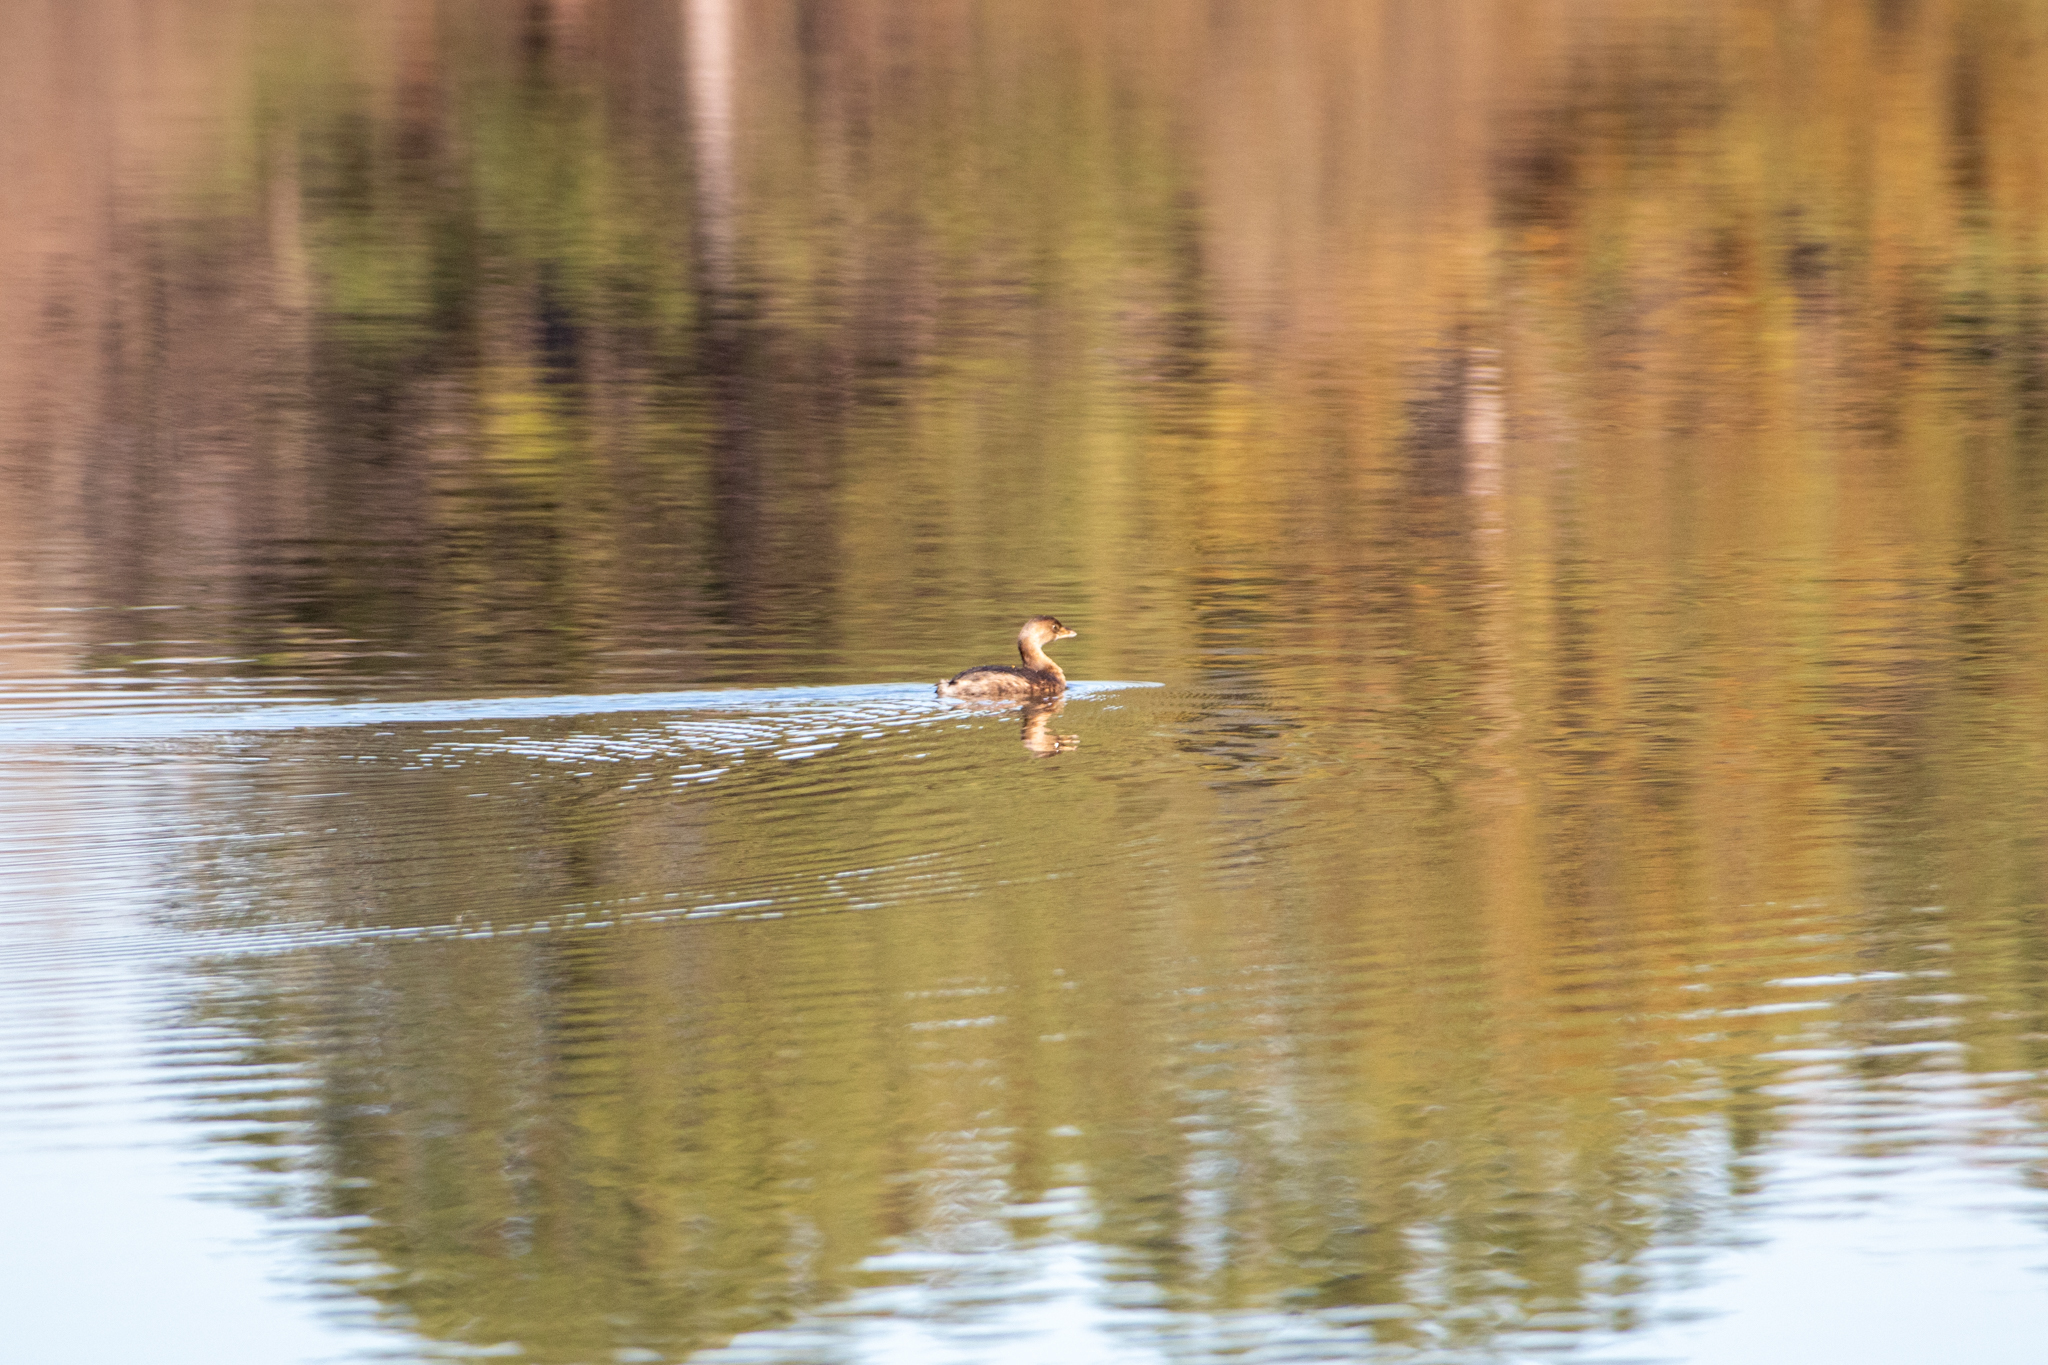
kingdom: Animalia
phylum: Chordata
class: Aves
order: Podicipediformes
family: Podicipedidae
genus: Podilymbus
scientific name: Podilymbus podiceps
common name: Pied-billed grebe
